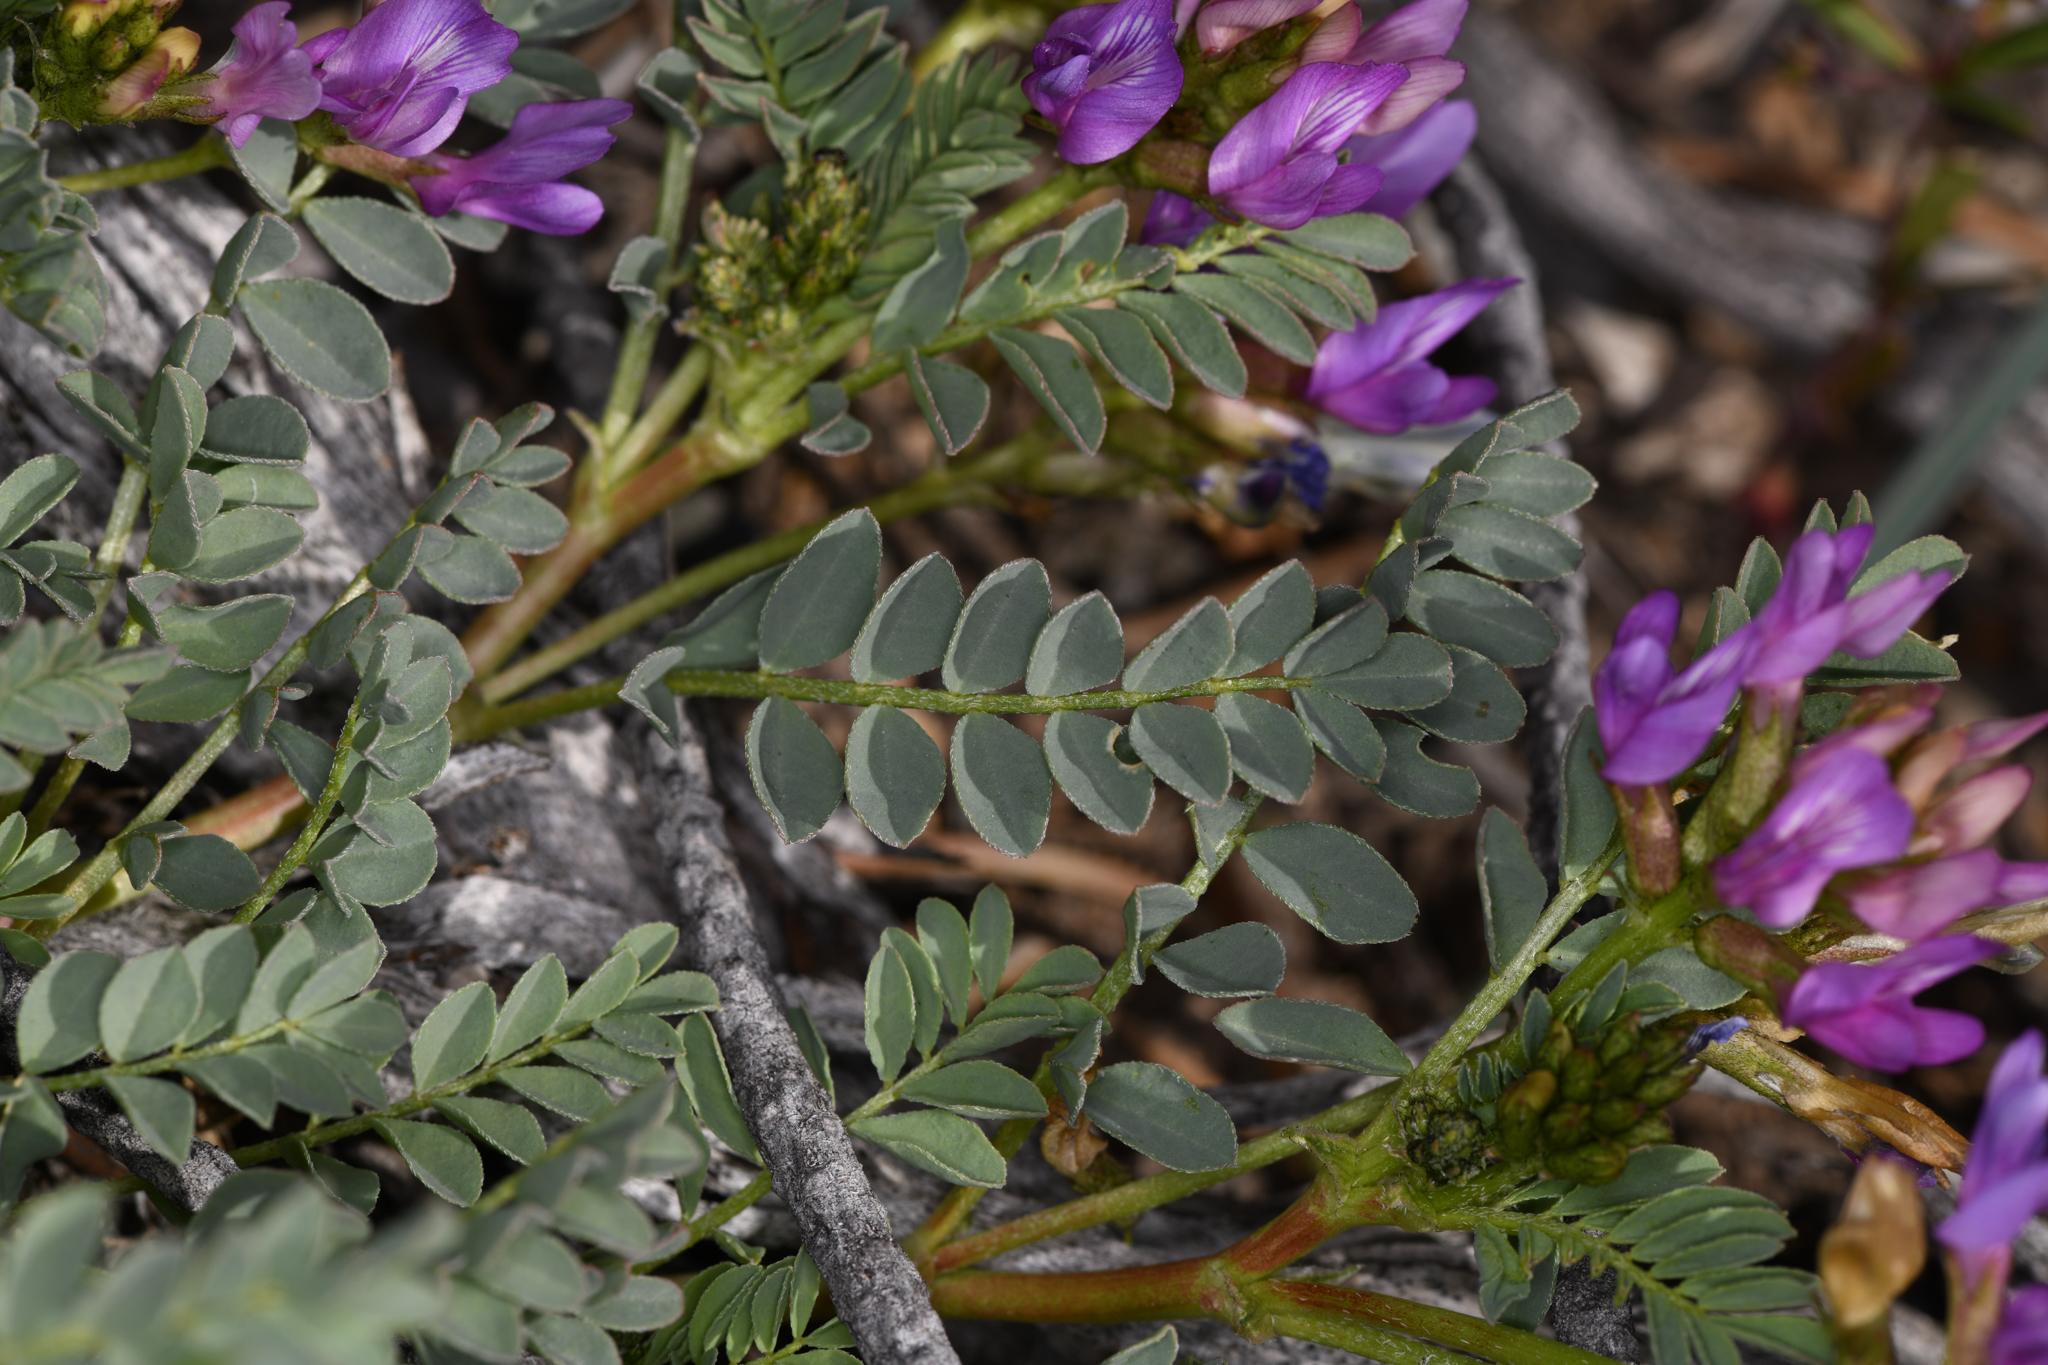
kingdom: Plantae
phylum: Tracheophyta
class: Magnoliopsida
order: Fabales
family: Fabaceae
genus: Astragalus
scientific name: Astragalus lentiginosus
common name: Freckled milkvetch
